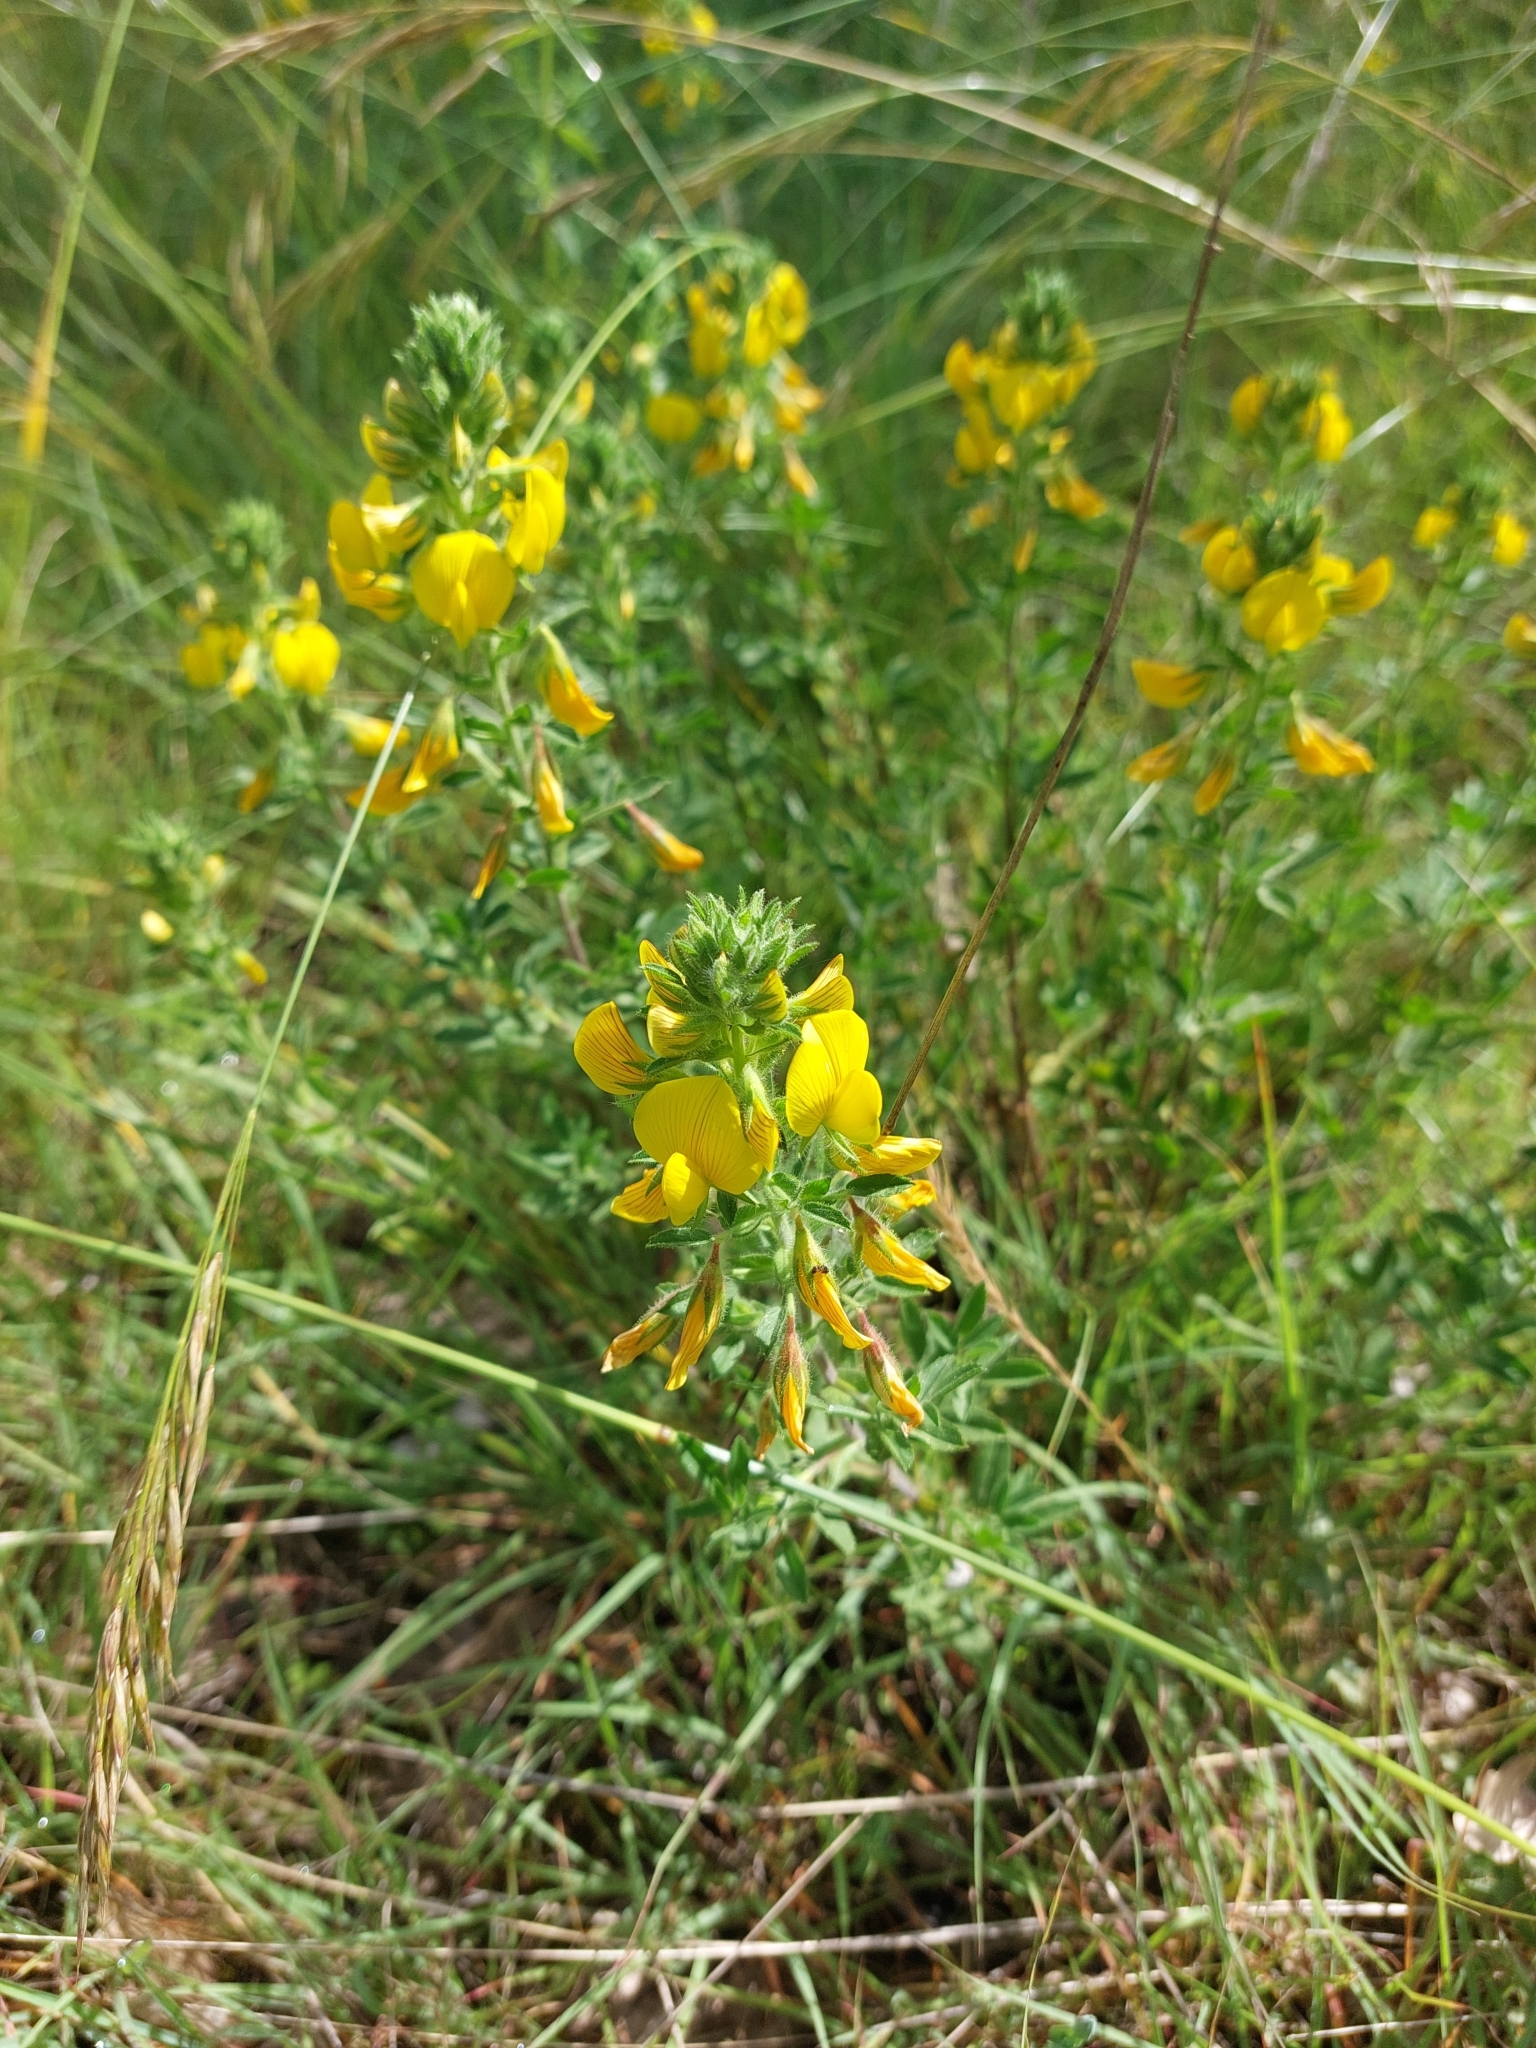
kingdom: Plantae
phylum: Tracheophyta
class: Magnoliopsida
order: Fabales
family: Fabaceae
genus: Ononis
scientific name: Ononis natrix
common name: Yellow restharrow
